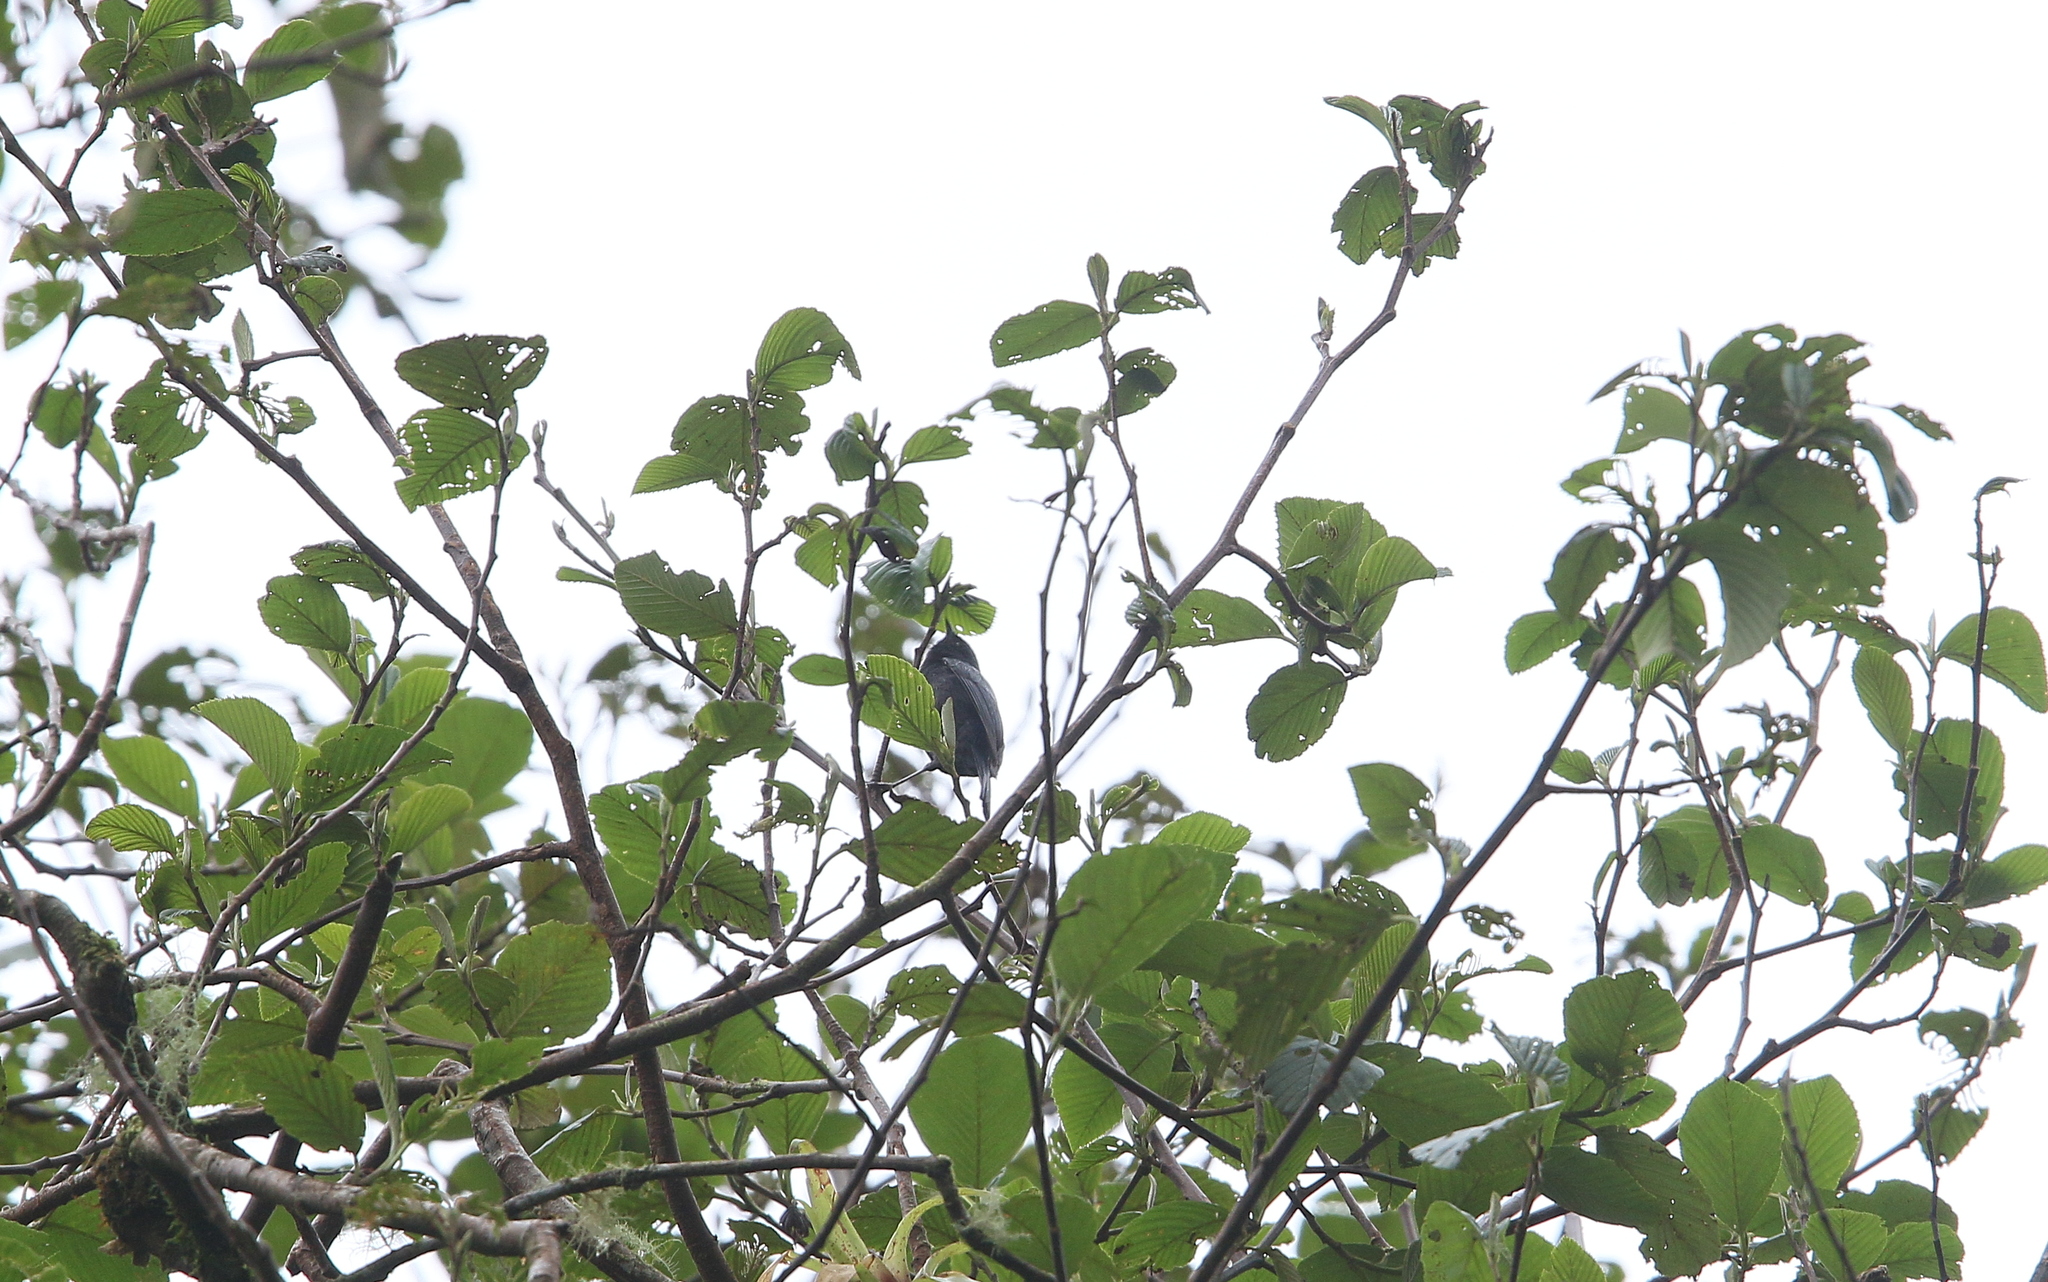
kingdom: Animalia
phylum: Chordata
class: Aves
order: Passeriformes
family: Thraupidae
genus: Conirostrum
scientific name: Conirostrum albifrons
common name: Capped conebill
